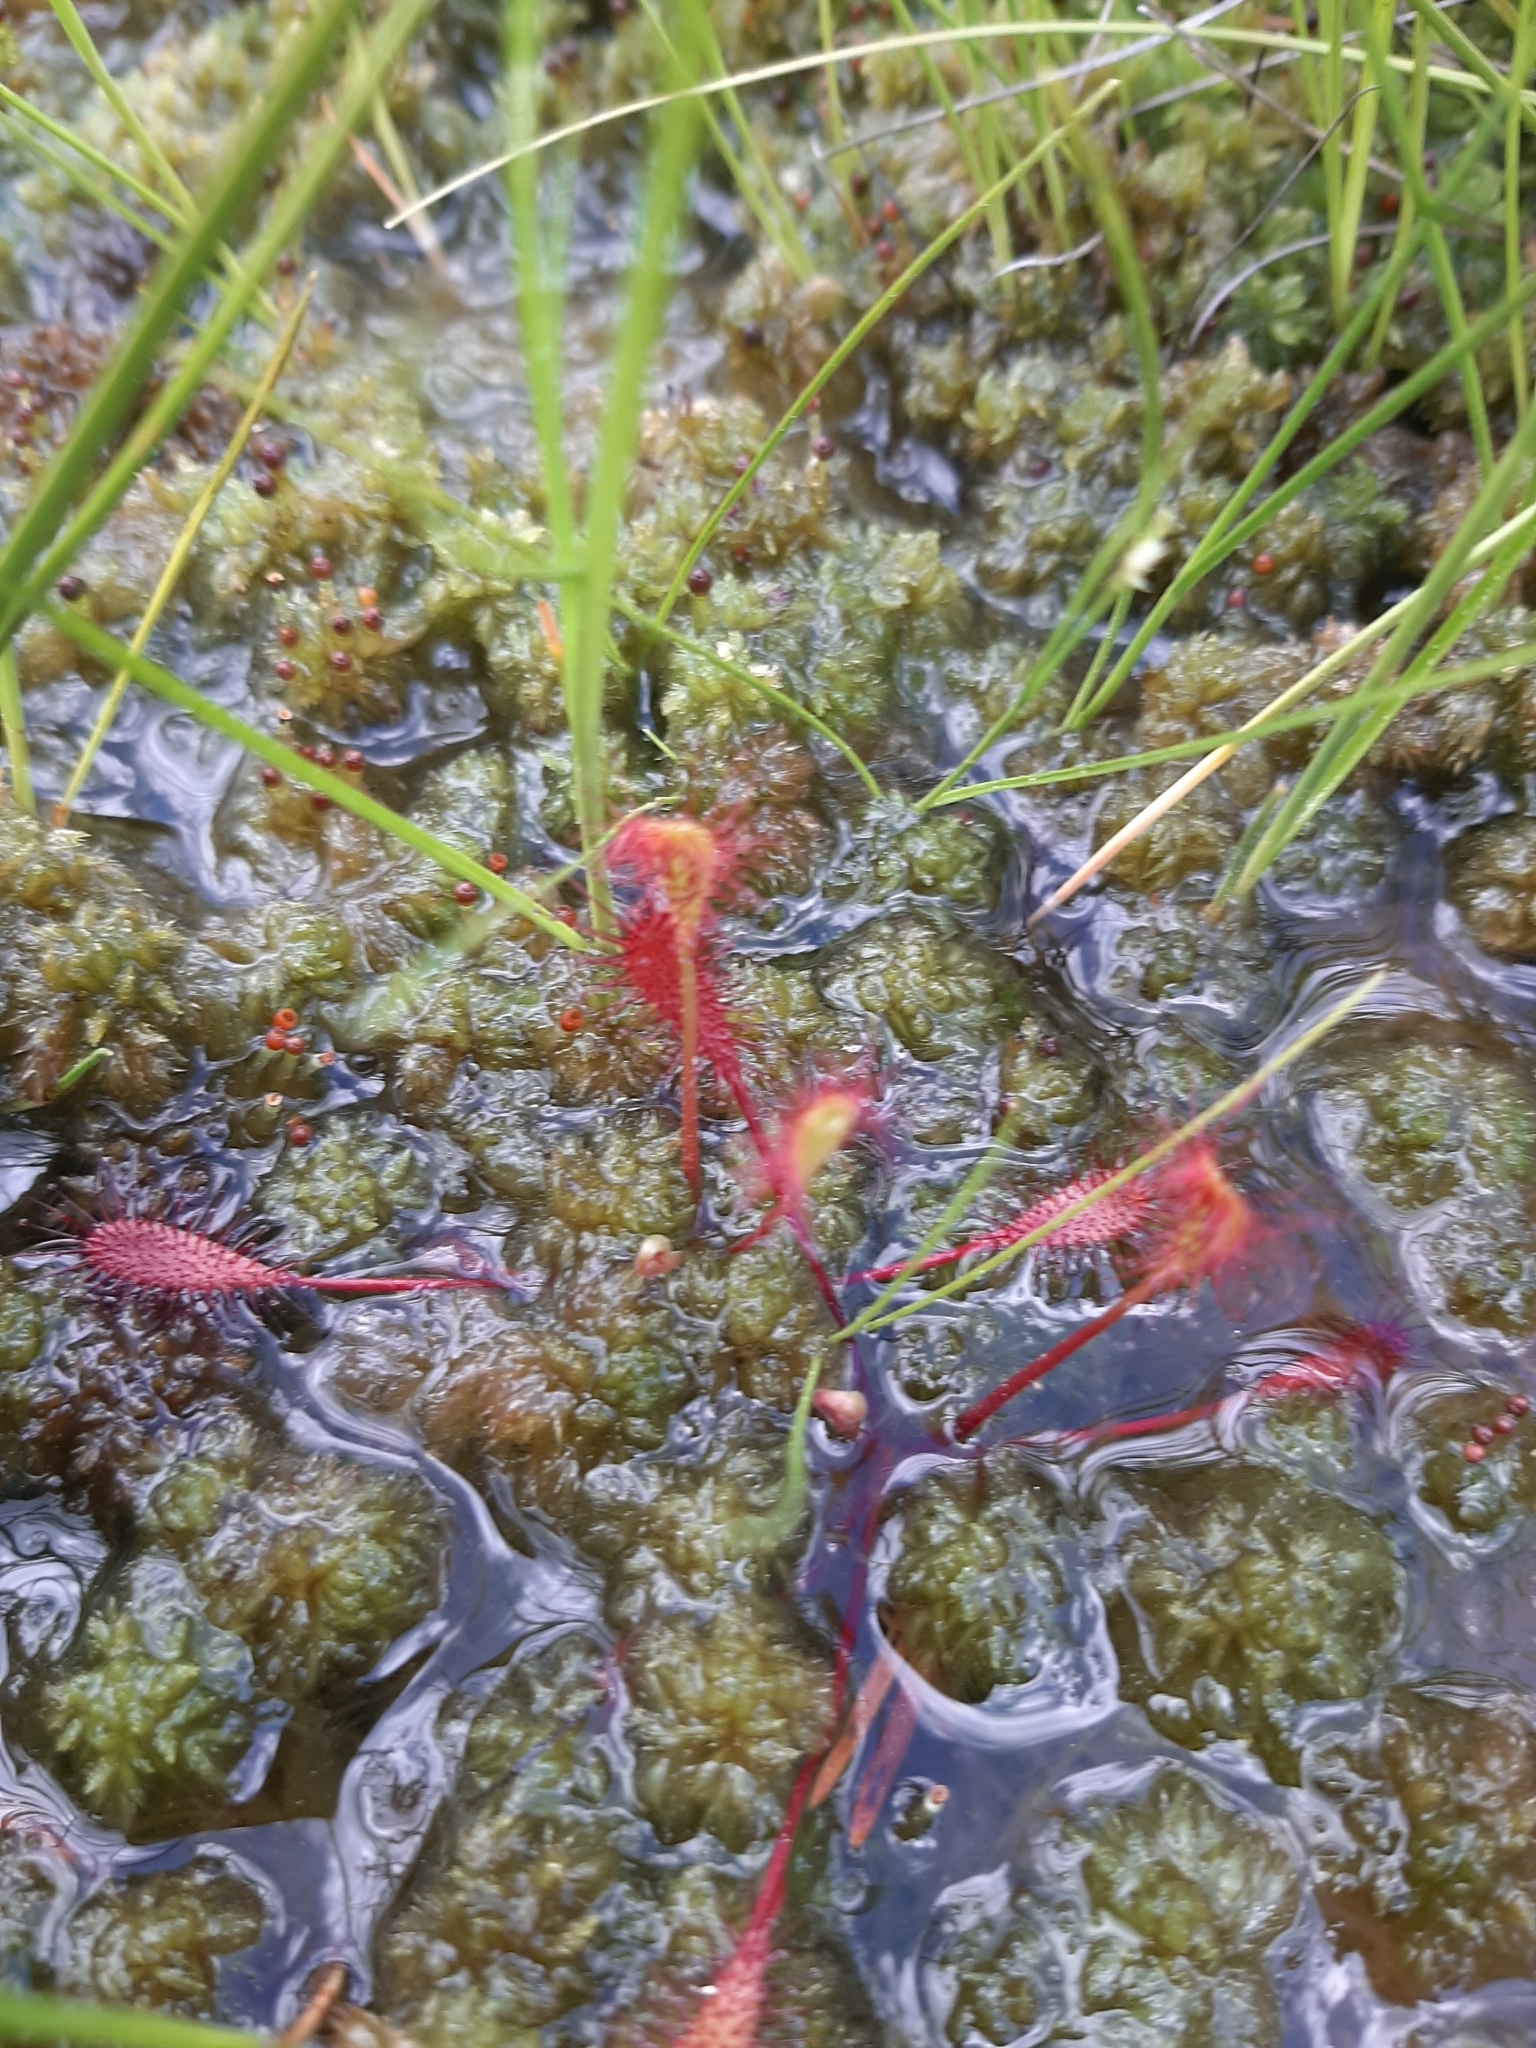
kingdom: Plantae
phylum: Tracheophyta
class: Magnoliopsida
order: Caryophyllales
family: Droseraceae
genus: Drosera
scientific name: Drosera anglica
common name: Great sundew
